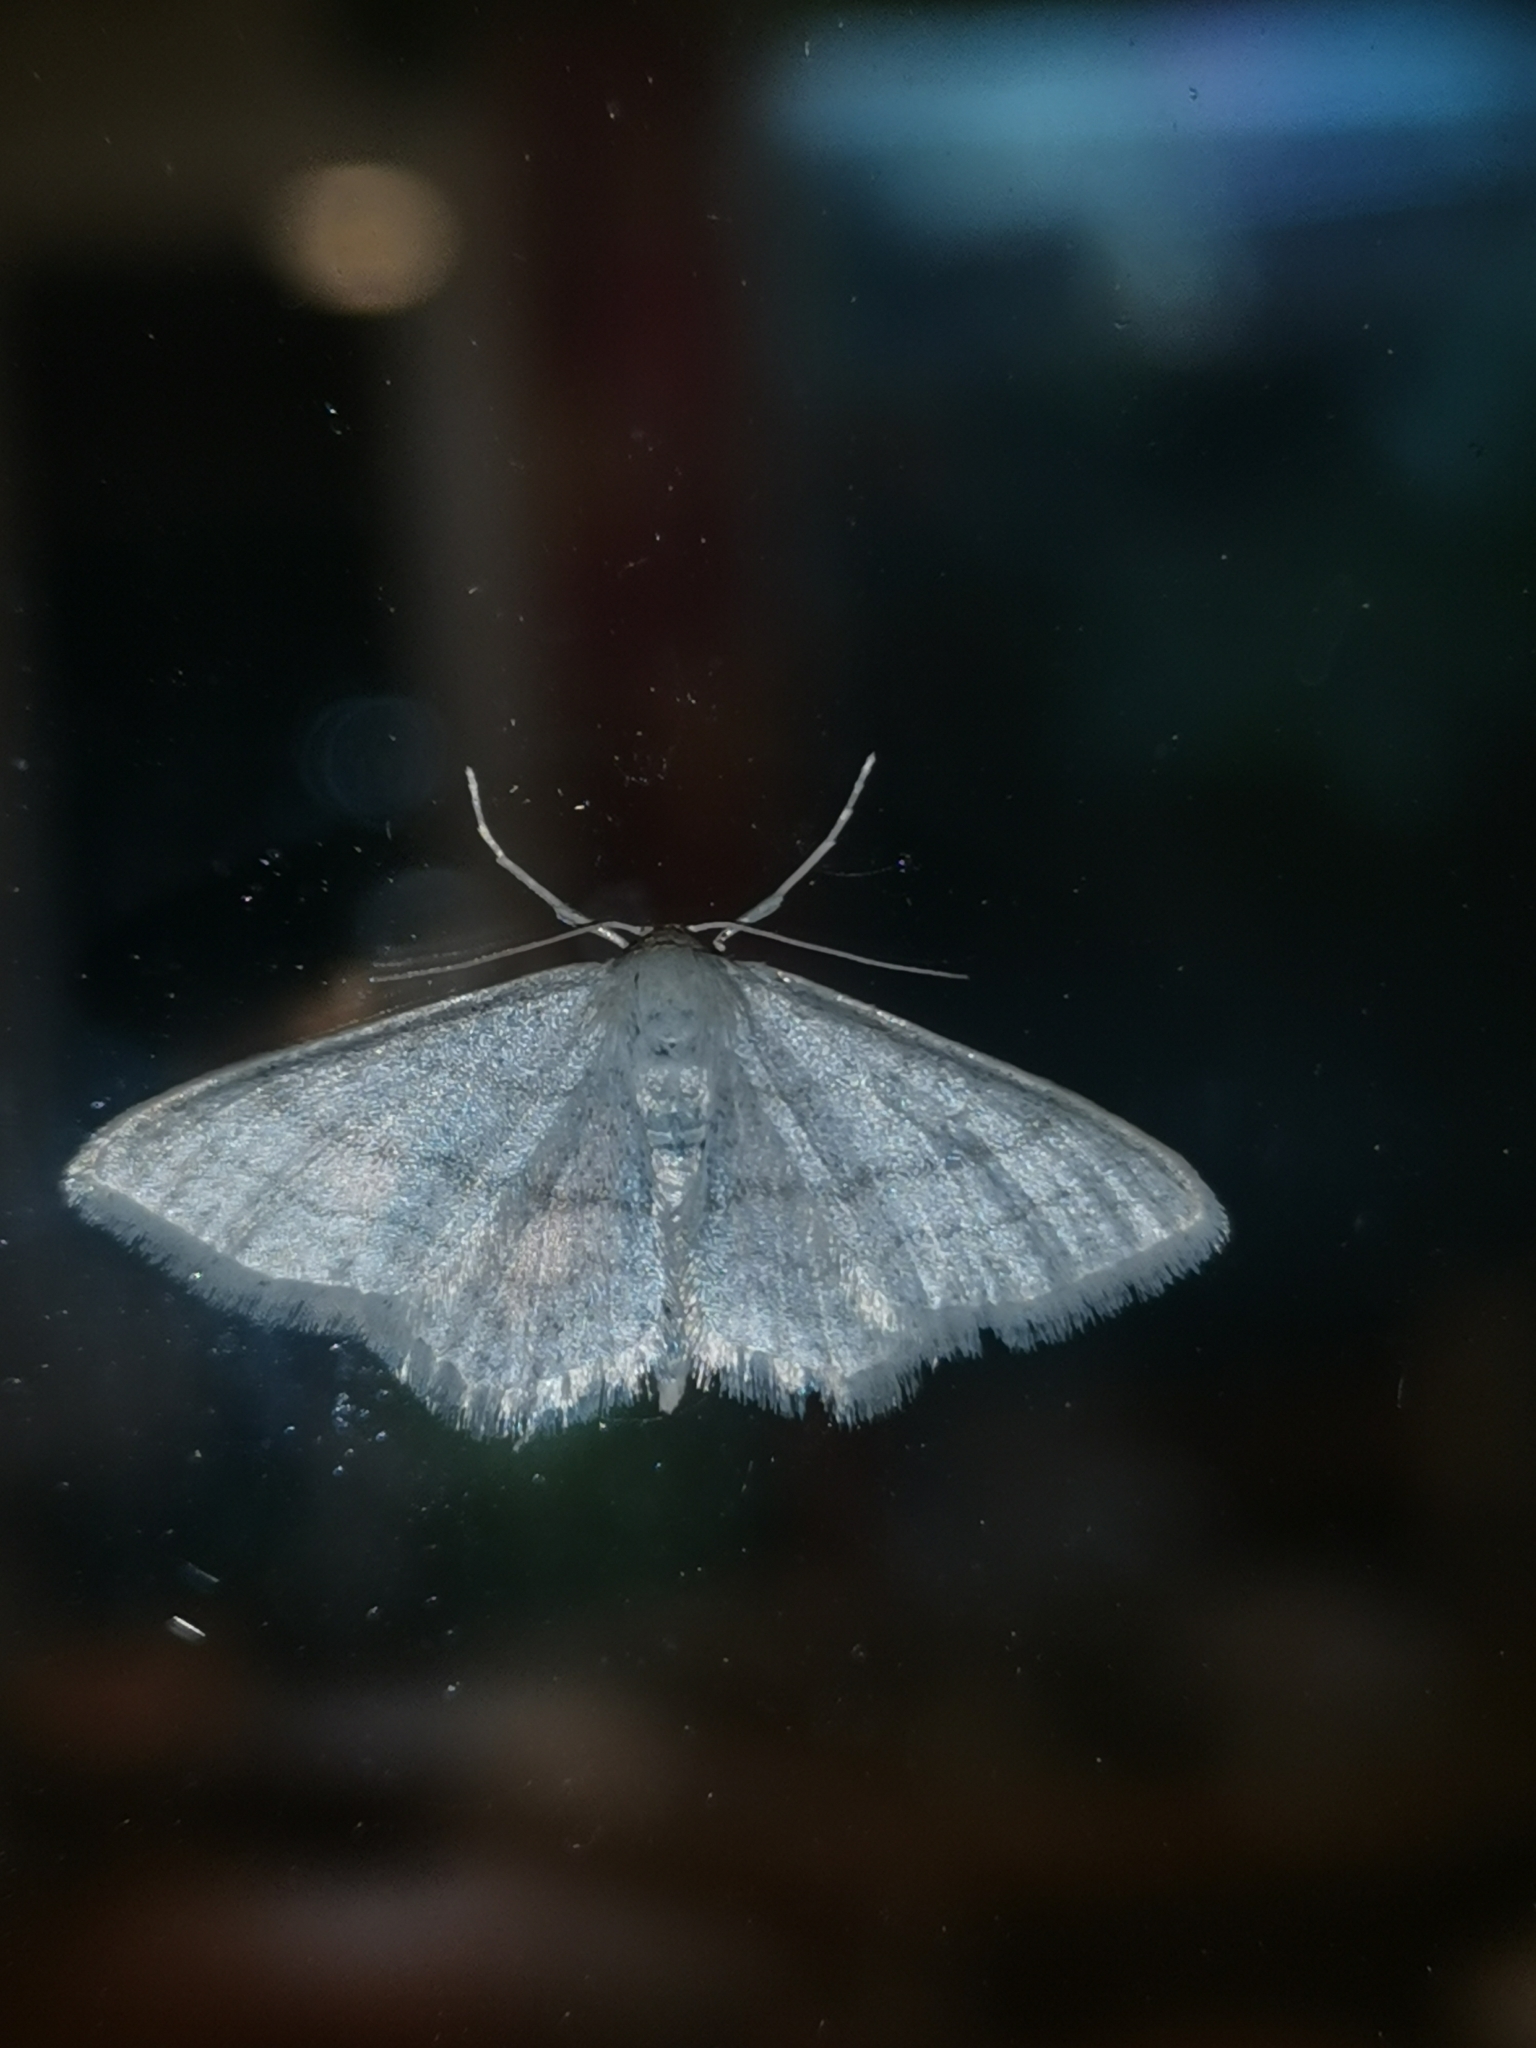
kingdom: Animalia
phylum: Arthropoda
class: Insecta
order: Lepidoptera
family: Geometridae
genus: Idaea
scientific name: Idaea subsericeata
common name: Satin wave
